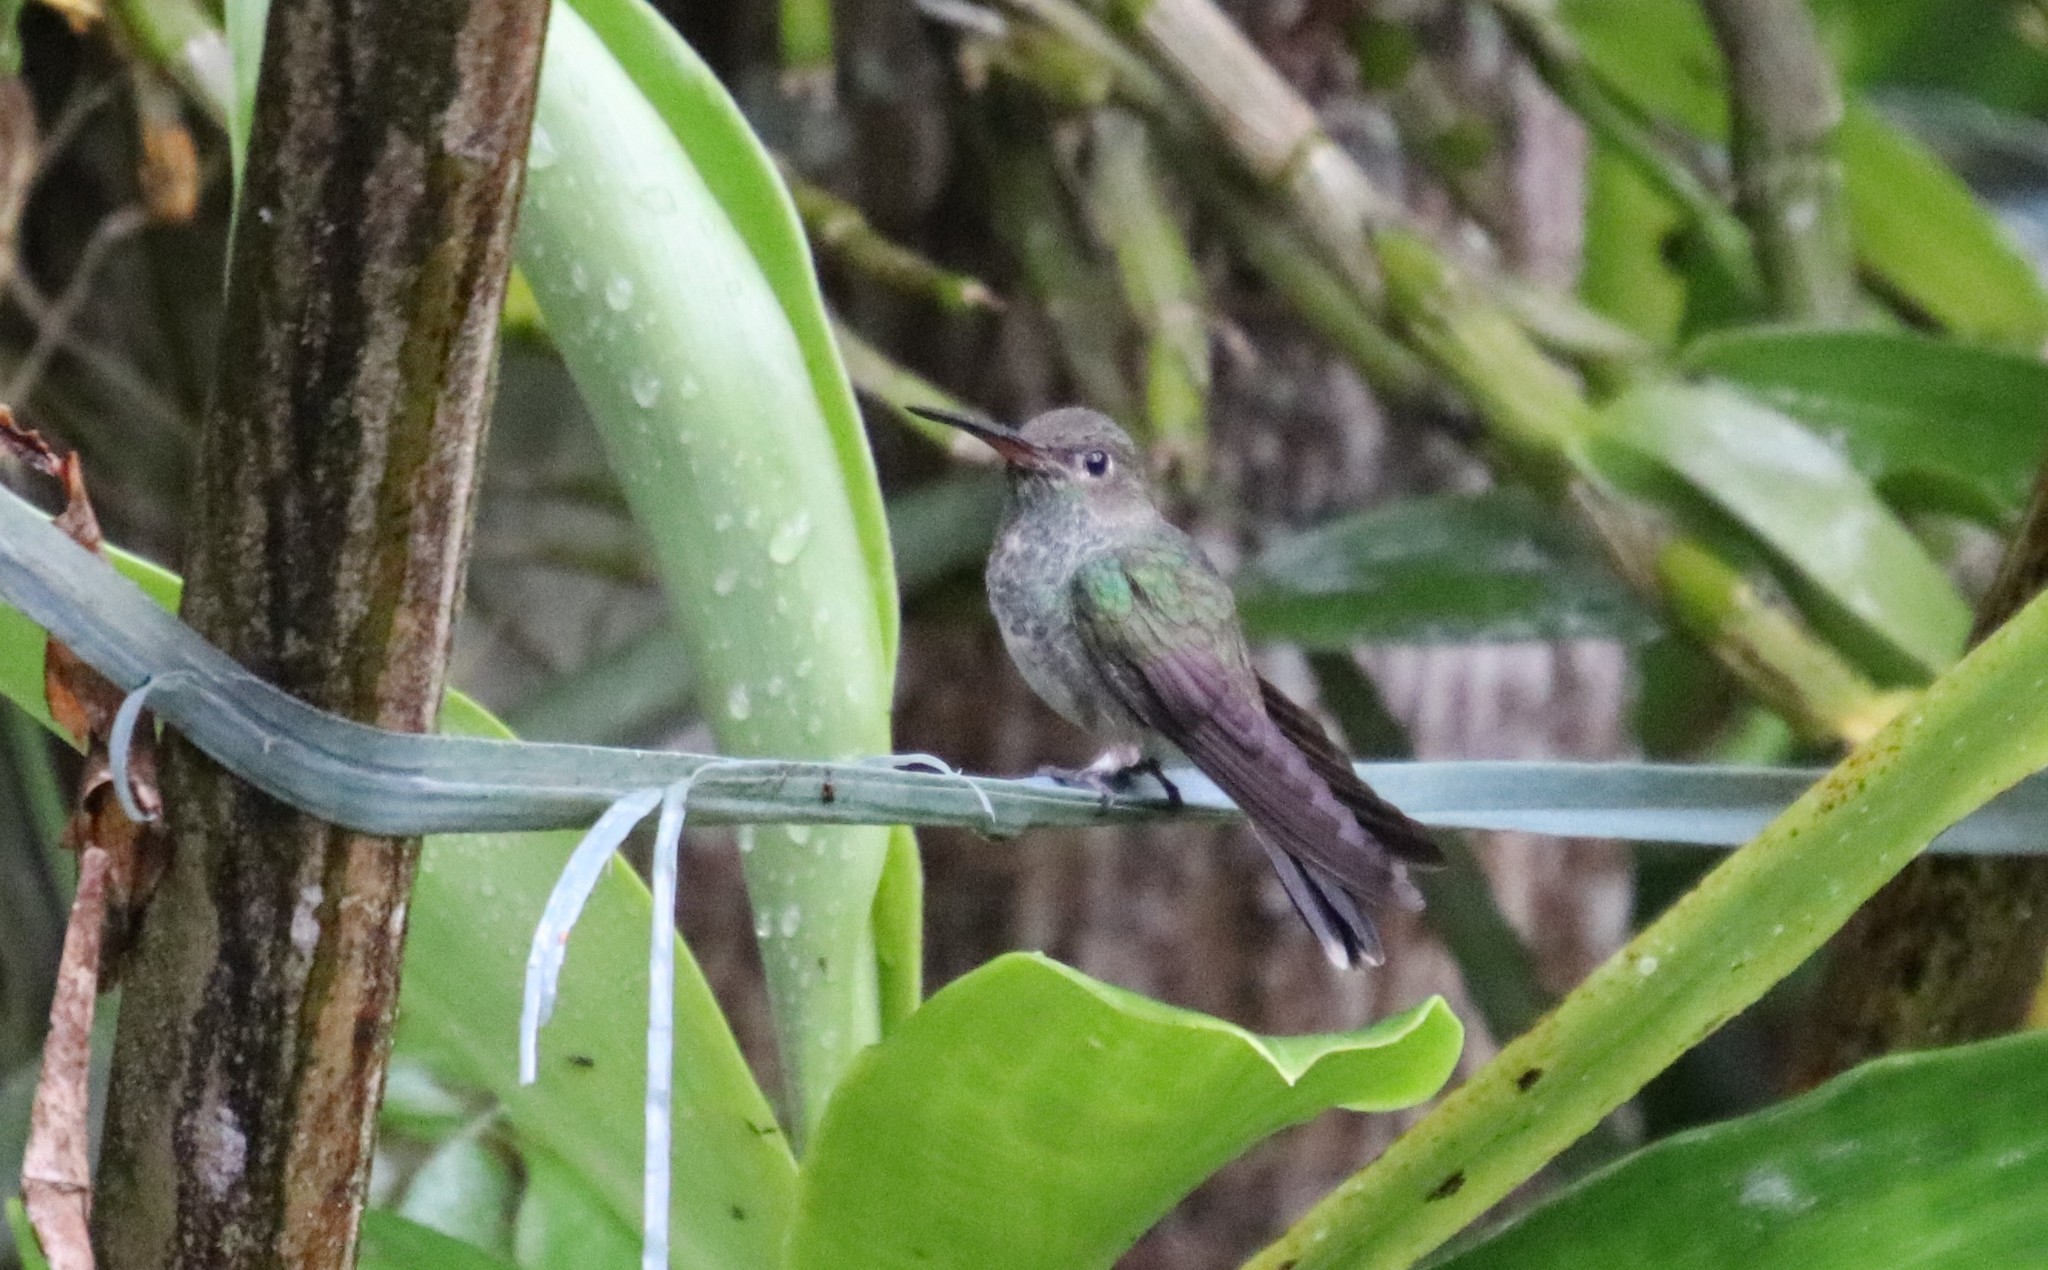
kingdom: Animalia
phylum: Chordata
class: Aves
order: Apodiformes
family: Trochilidae
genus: Chionomesa
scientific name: Chionomesa fimbriata
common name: Glittering-throated emerald
